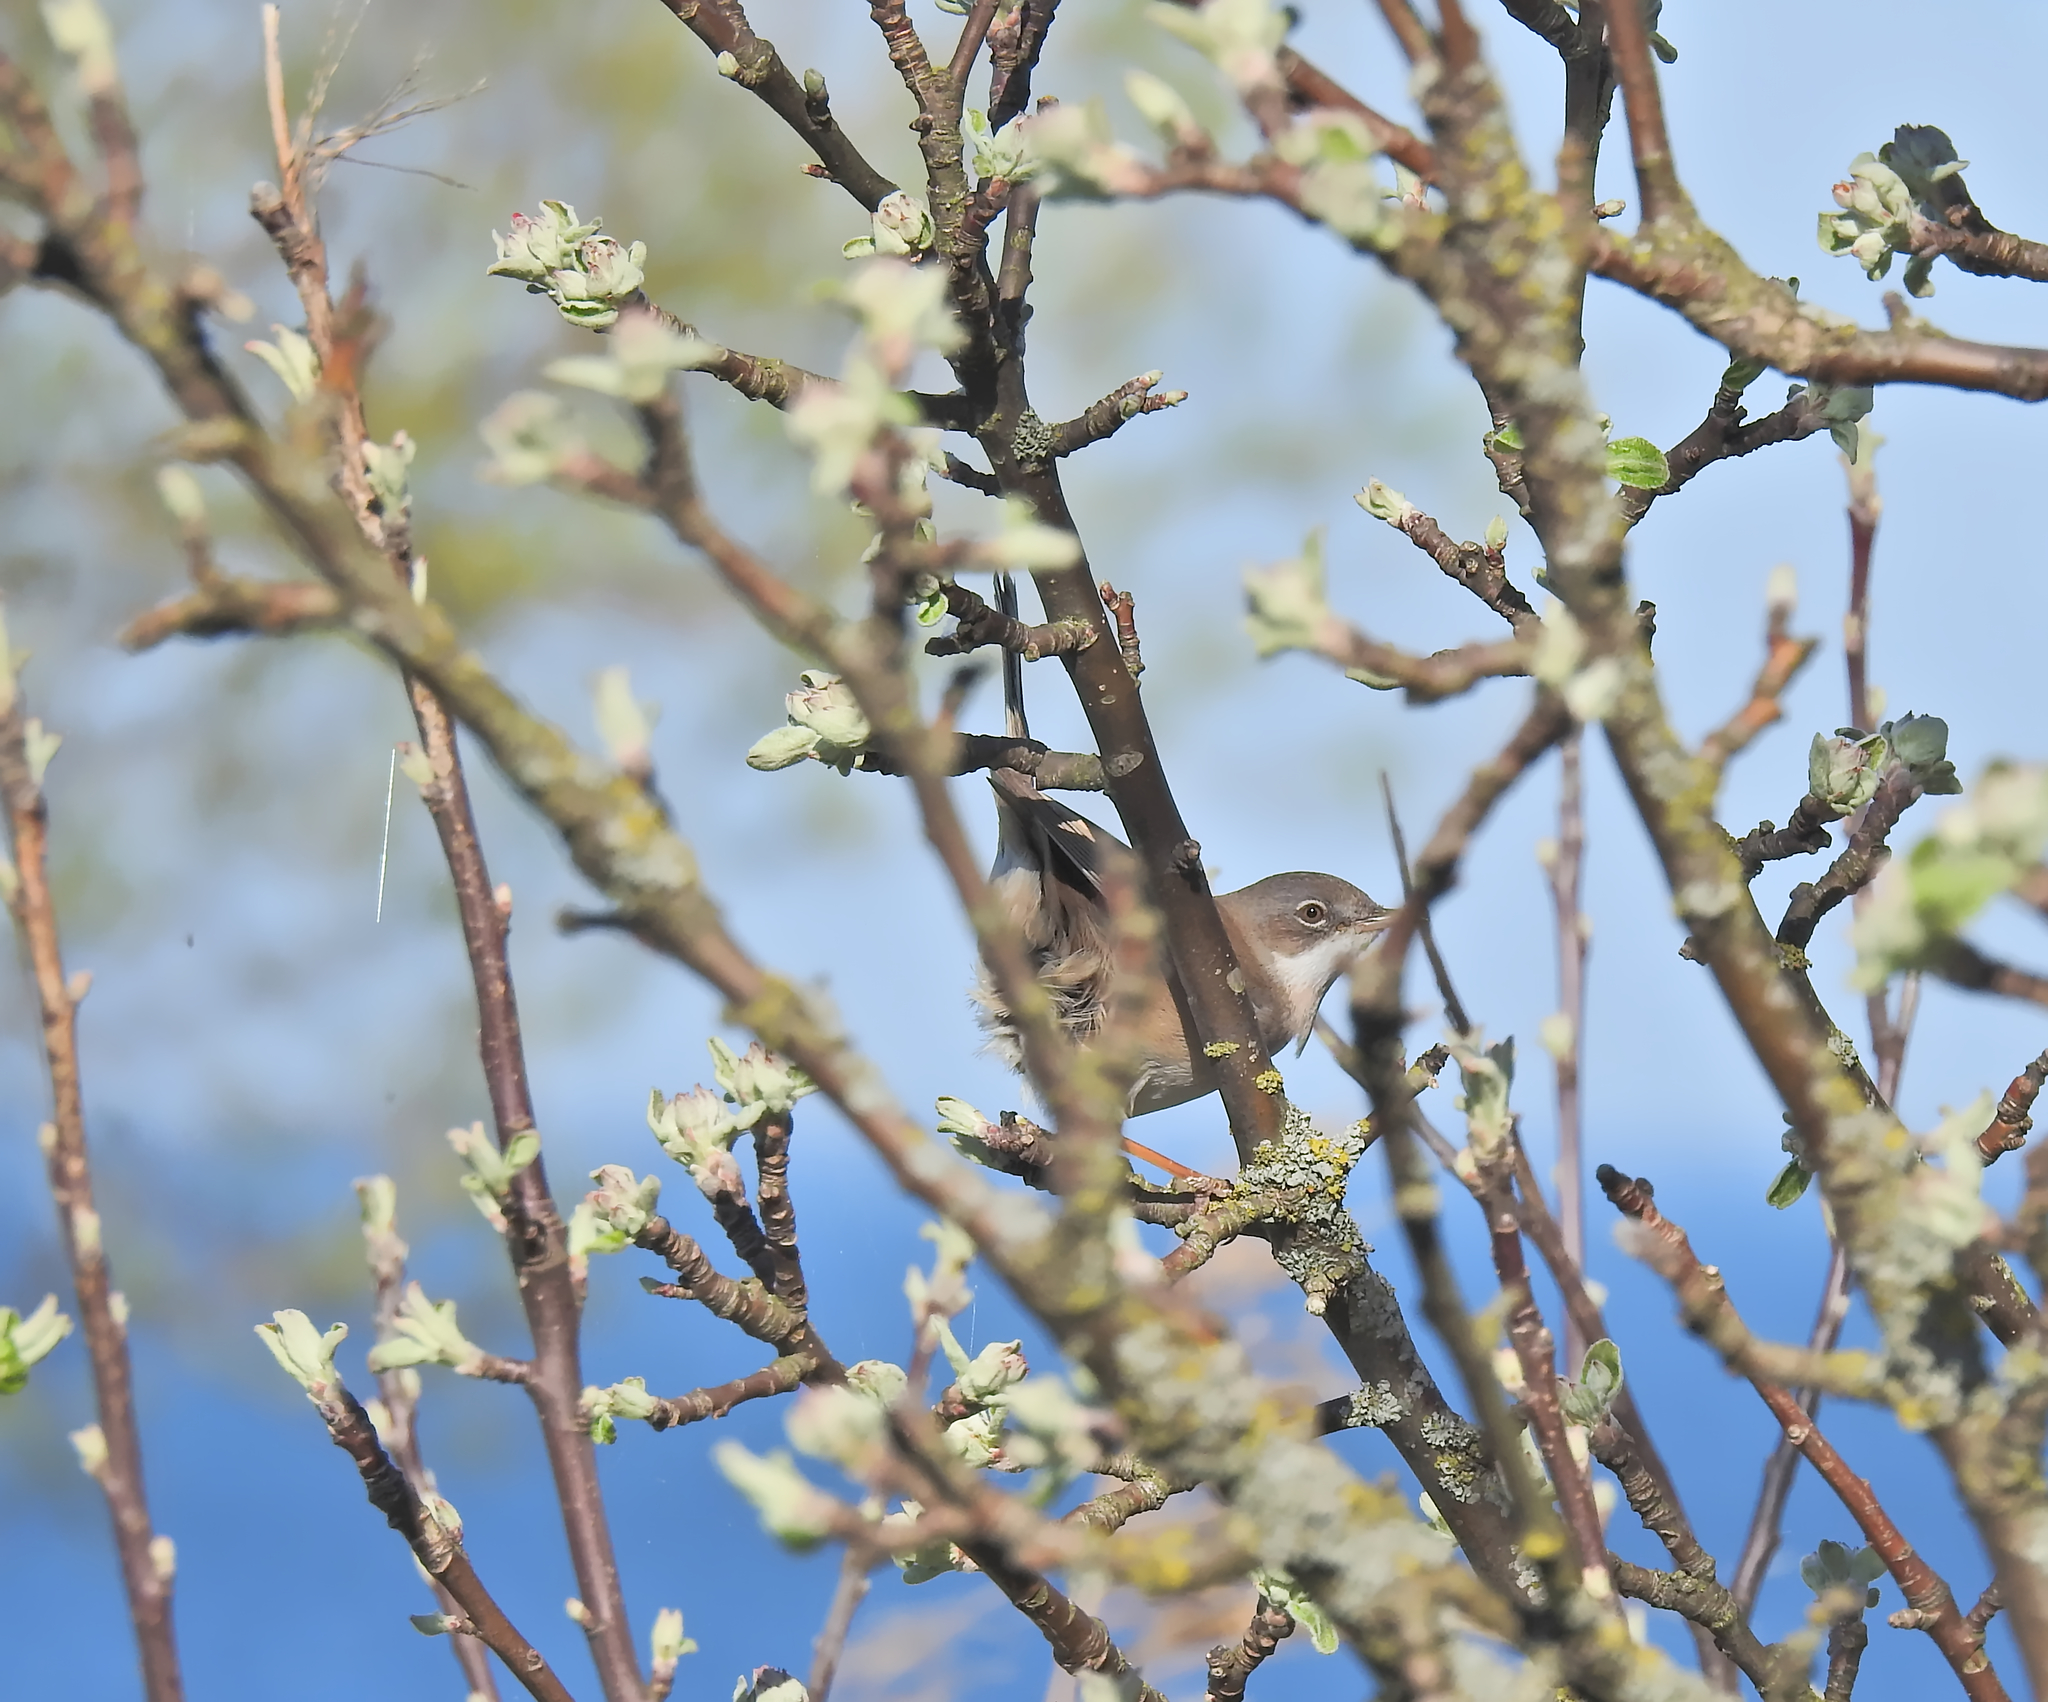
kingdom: Animalia
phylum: Chordata
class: Aves
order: Passeriformes
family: Sylviidae
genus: Sylvia
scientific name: Sylvia communis
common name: Common whitethroat
